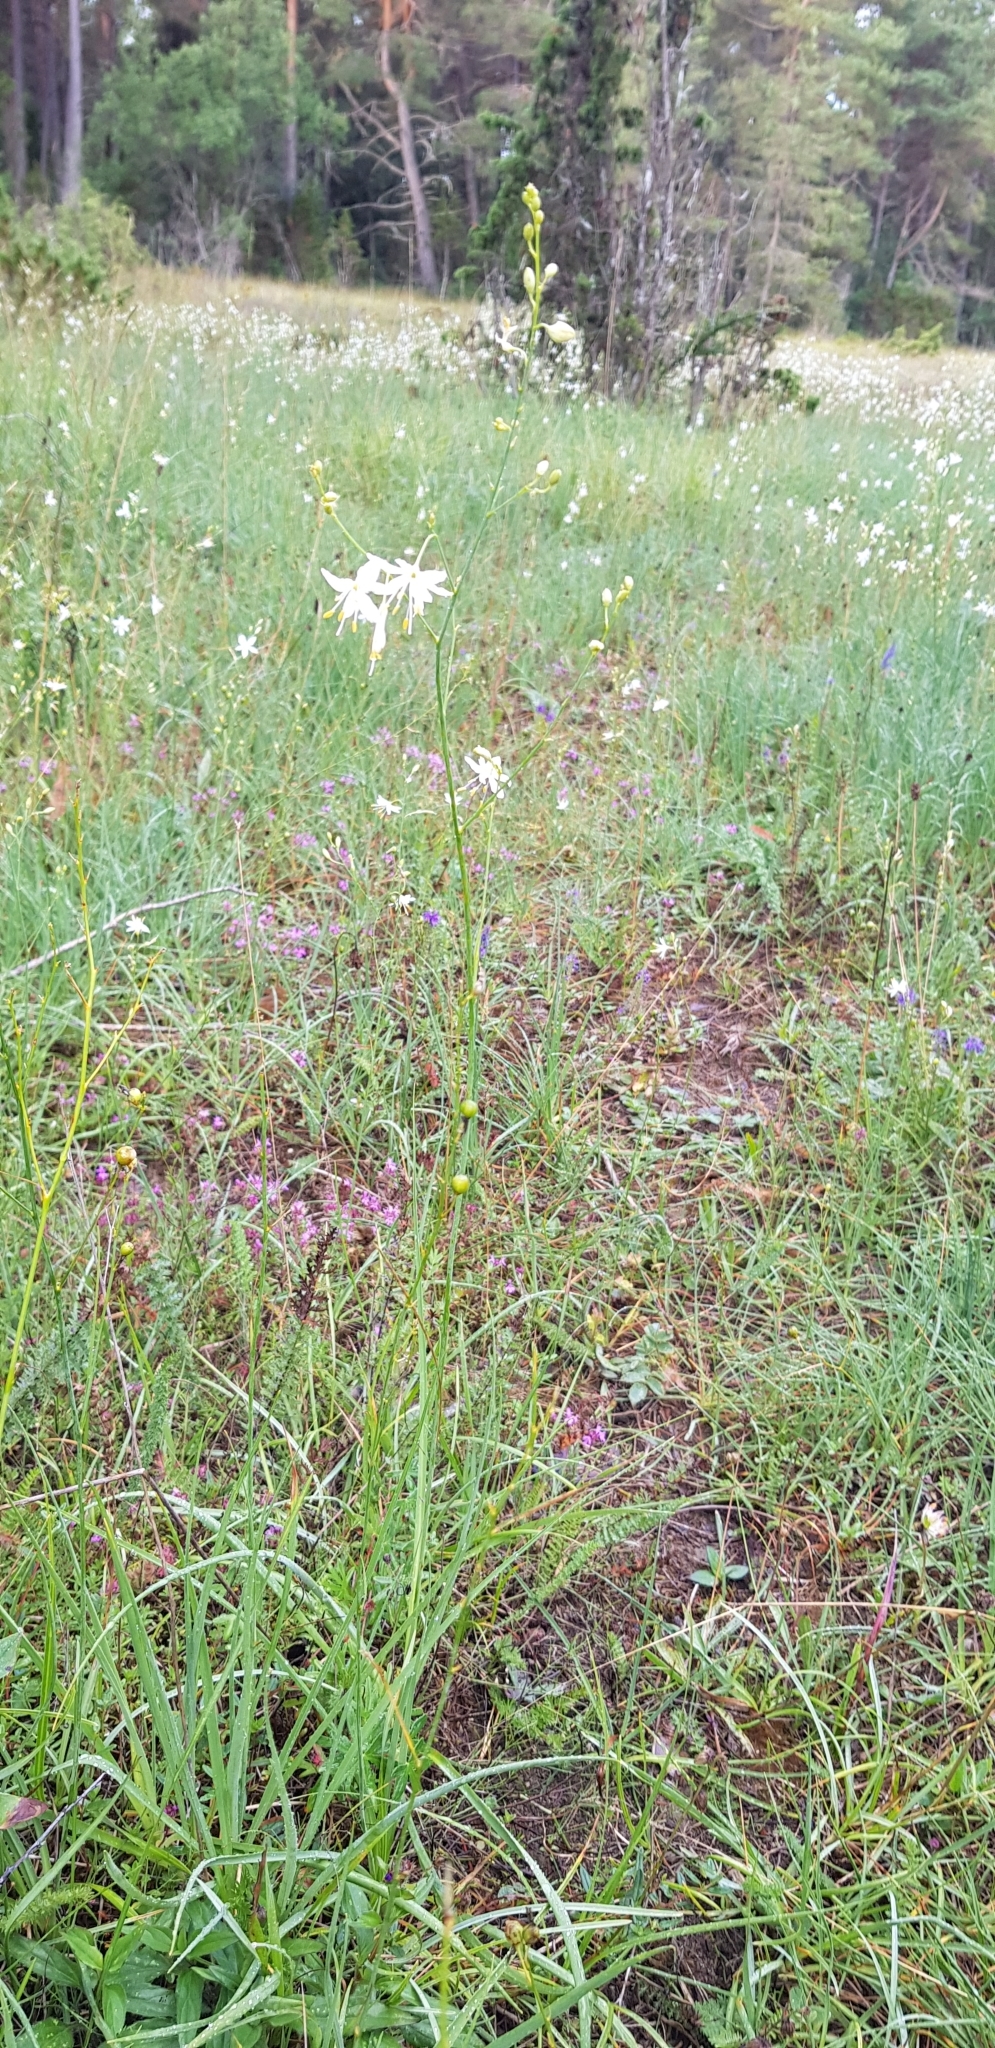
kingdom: Plantae
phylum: Tracheophyta
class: Liliopsida
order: Asparagales
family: Asparagaceae
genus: Anthericum
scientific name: Anthericum ramosum
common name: Branched st. bernard's-lily
